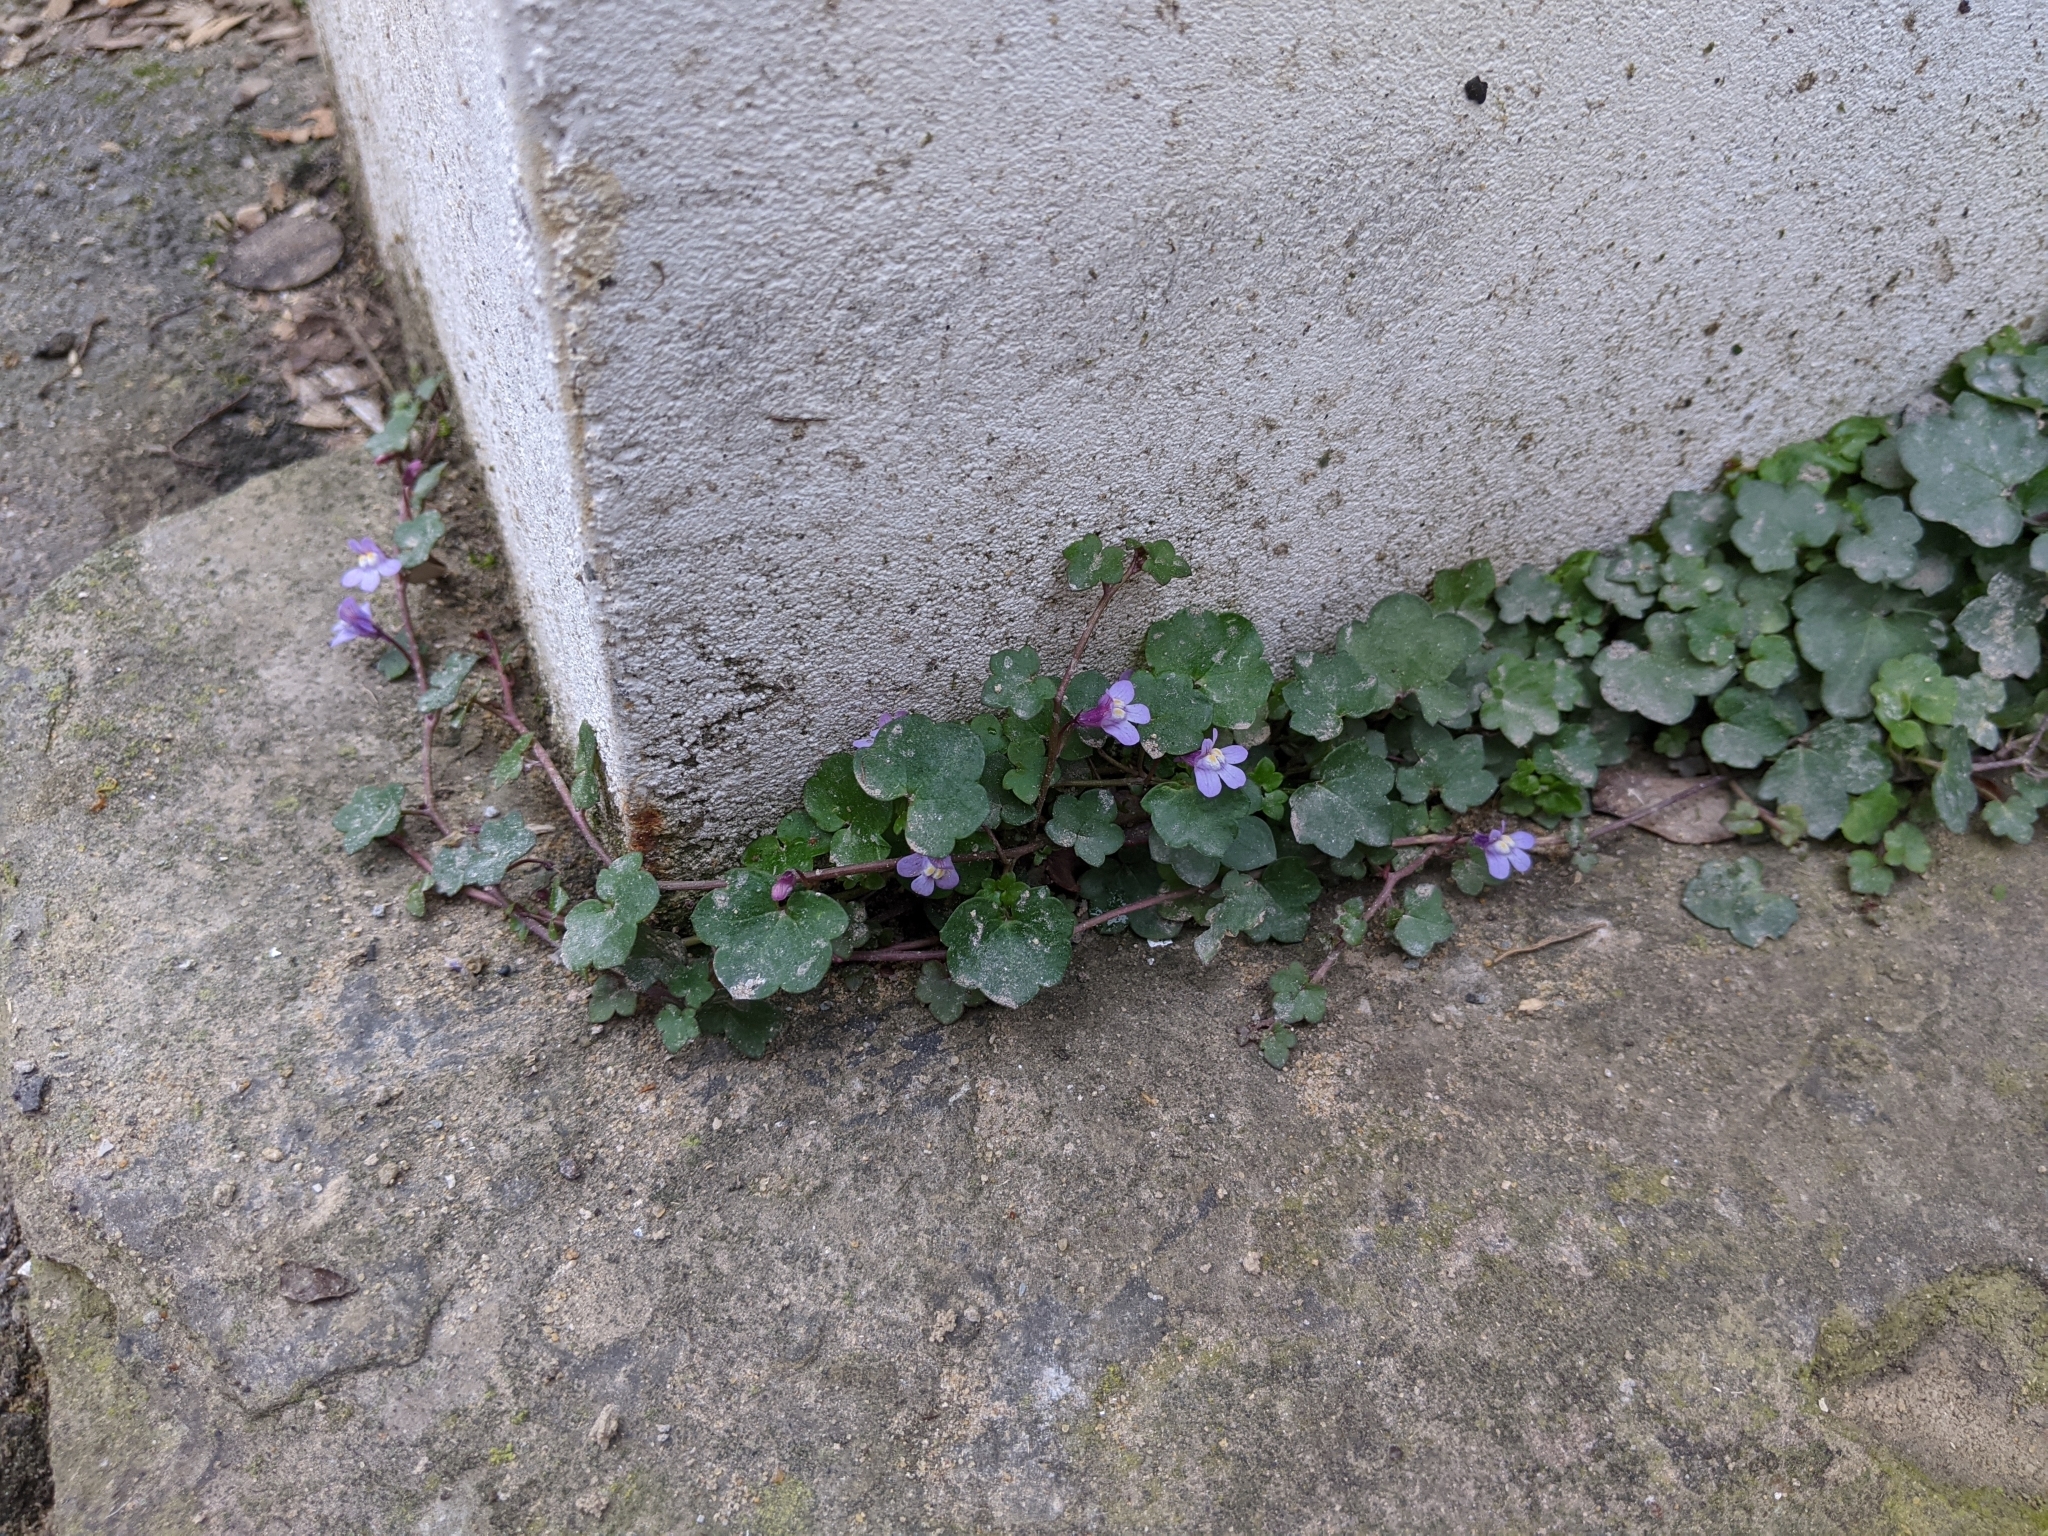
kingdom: Plantae
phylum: Tracheophyta
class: Magnoliopsida
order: Lamiales
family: Plantaginaceae
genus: Cymbalaria
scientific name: Cymbalaria muralis
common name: Ivy-leaved toadflax
